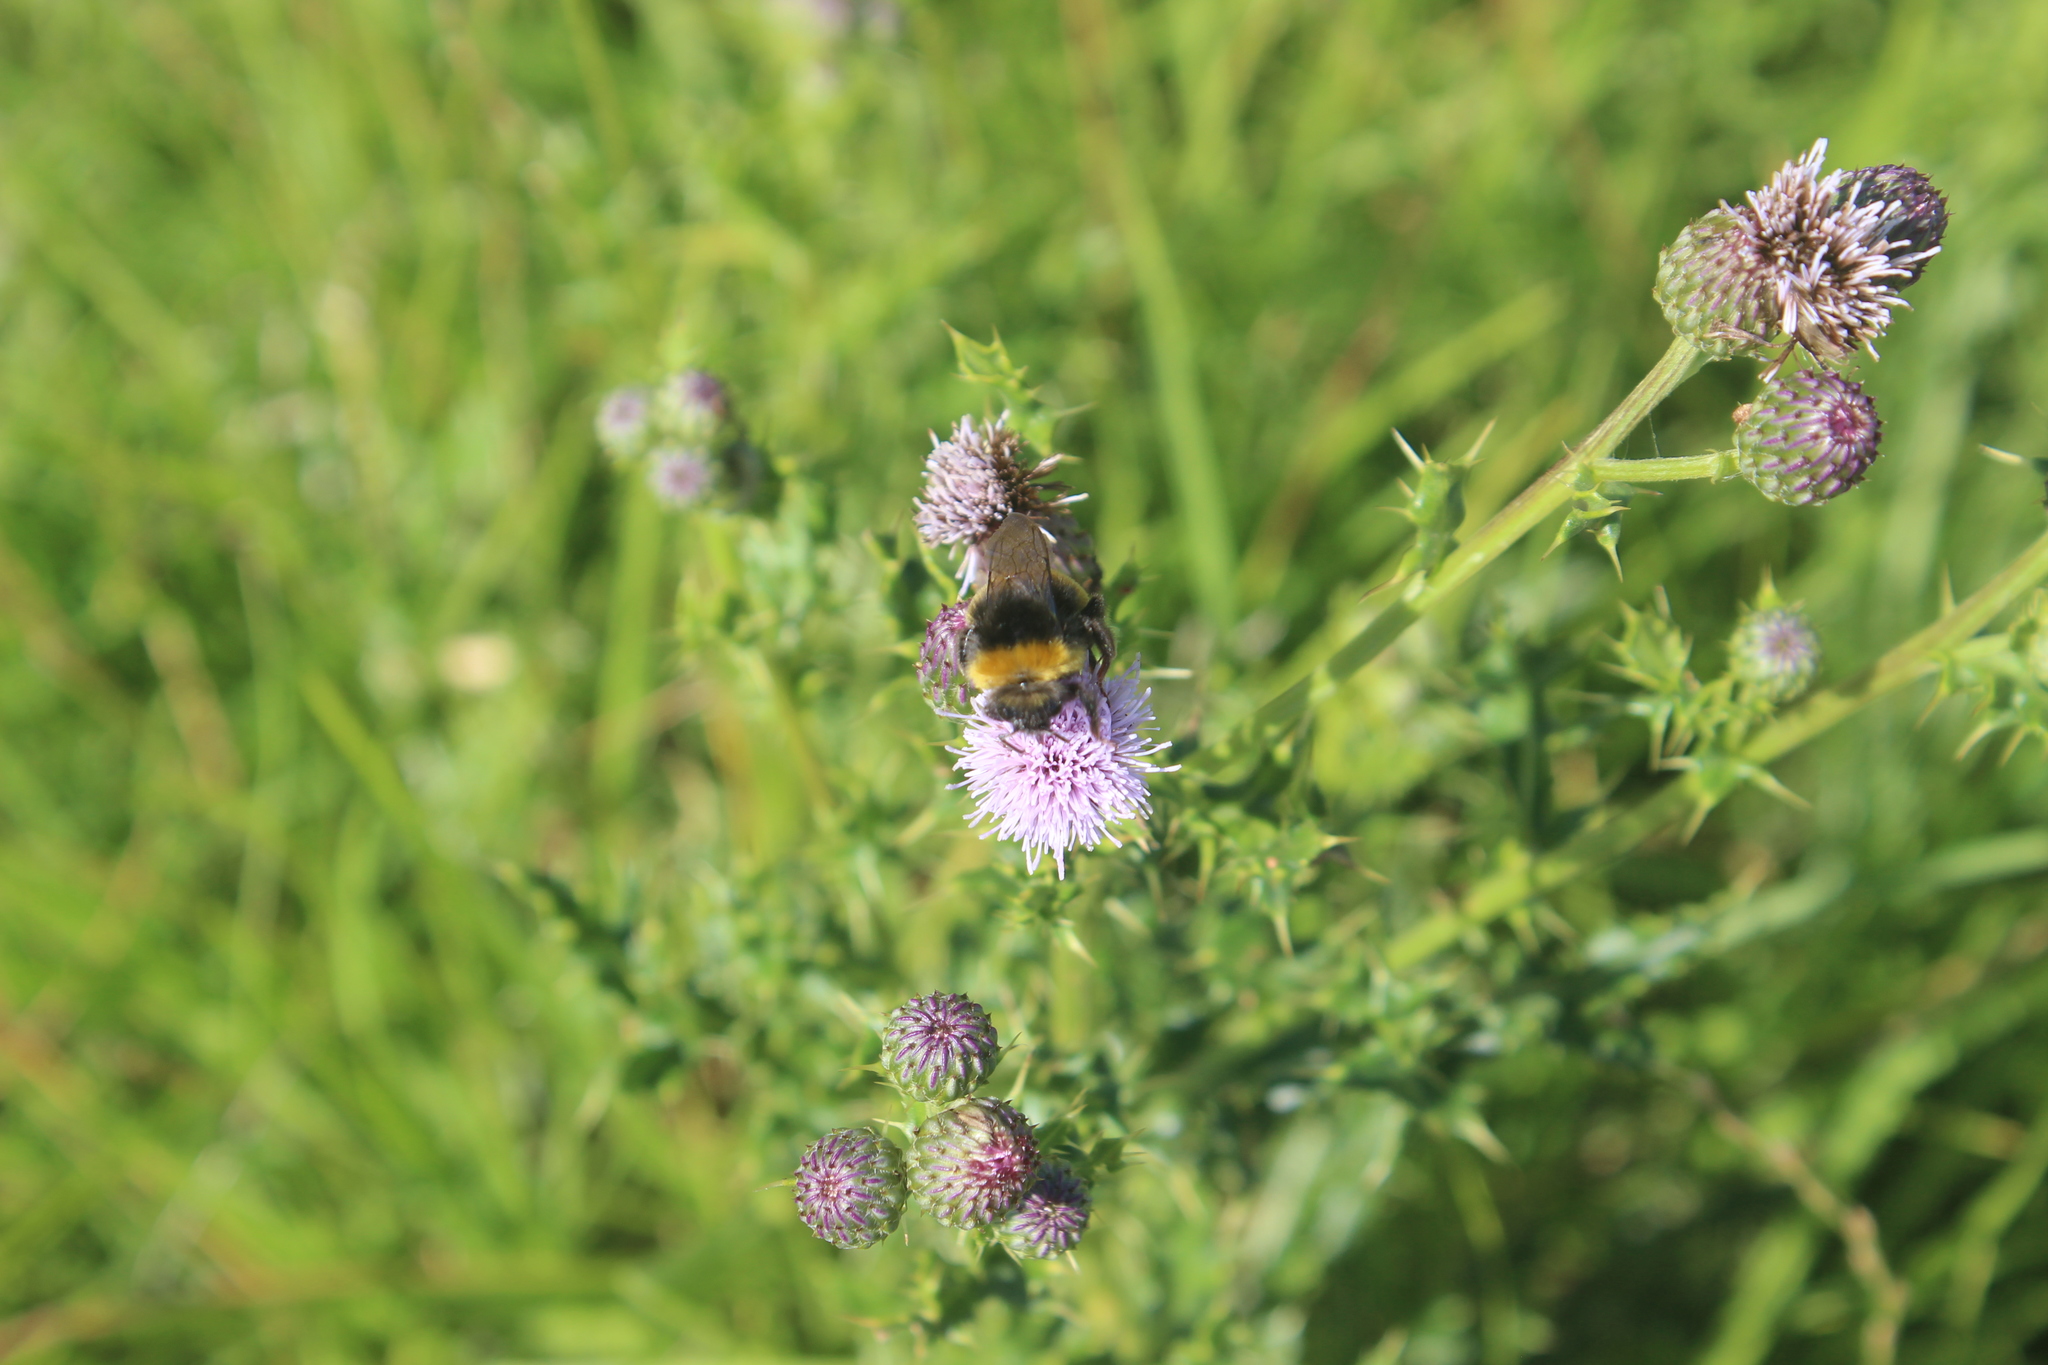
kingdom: Animalia
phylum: Arthropoda
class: Insecta
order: Hymenoptera
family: Apidae
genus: Bombus
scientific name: Bombus terrestris
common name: Buff-tailed bumblebee
